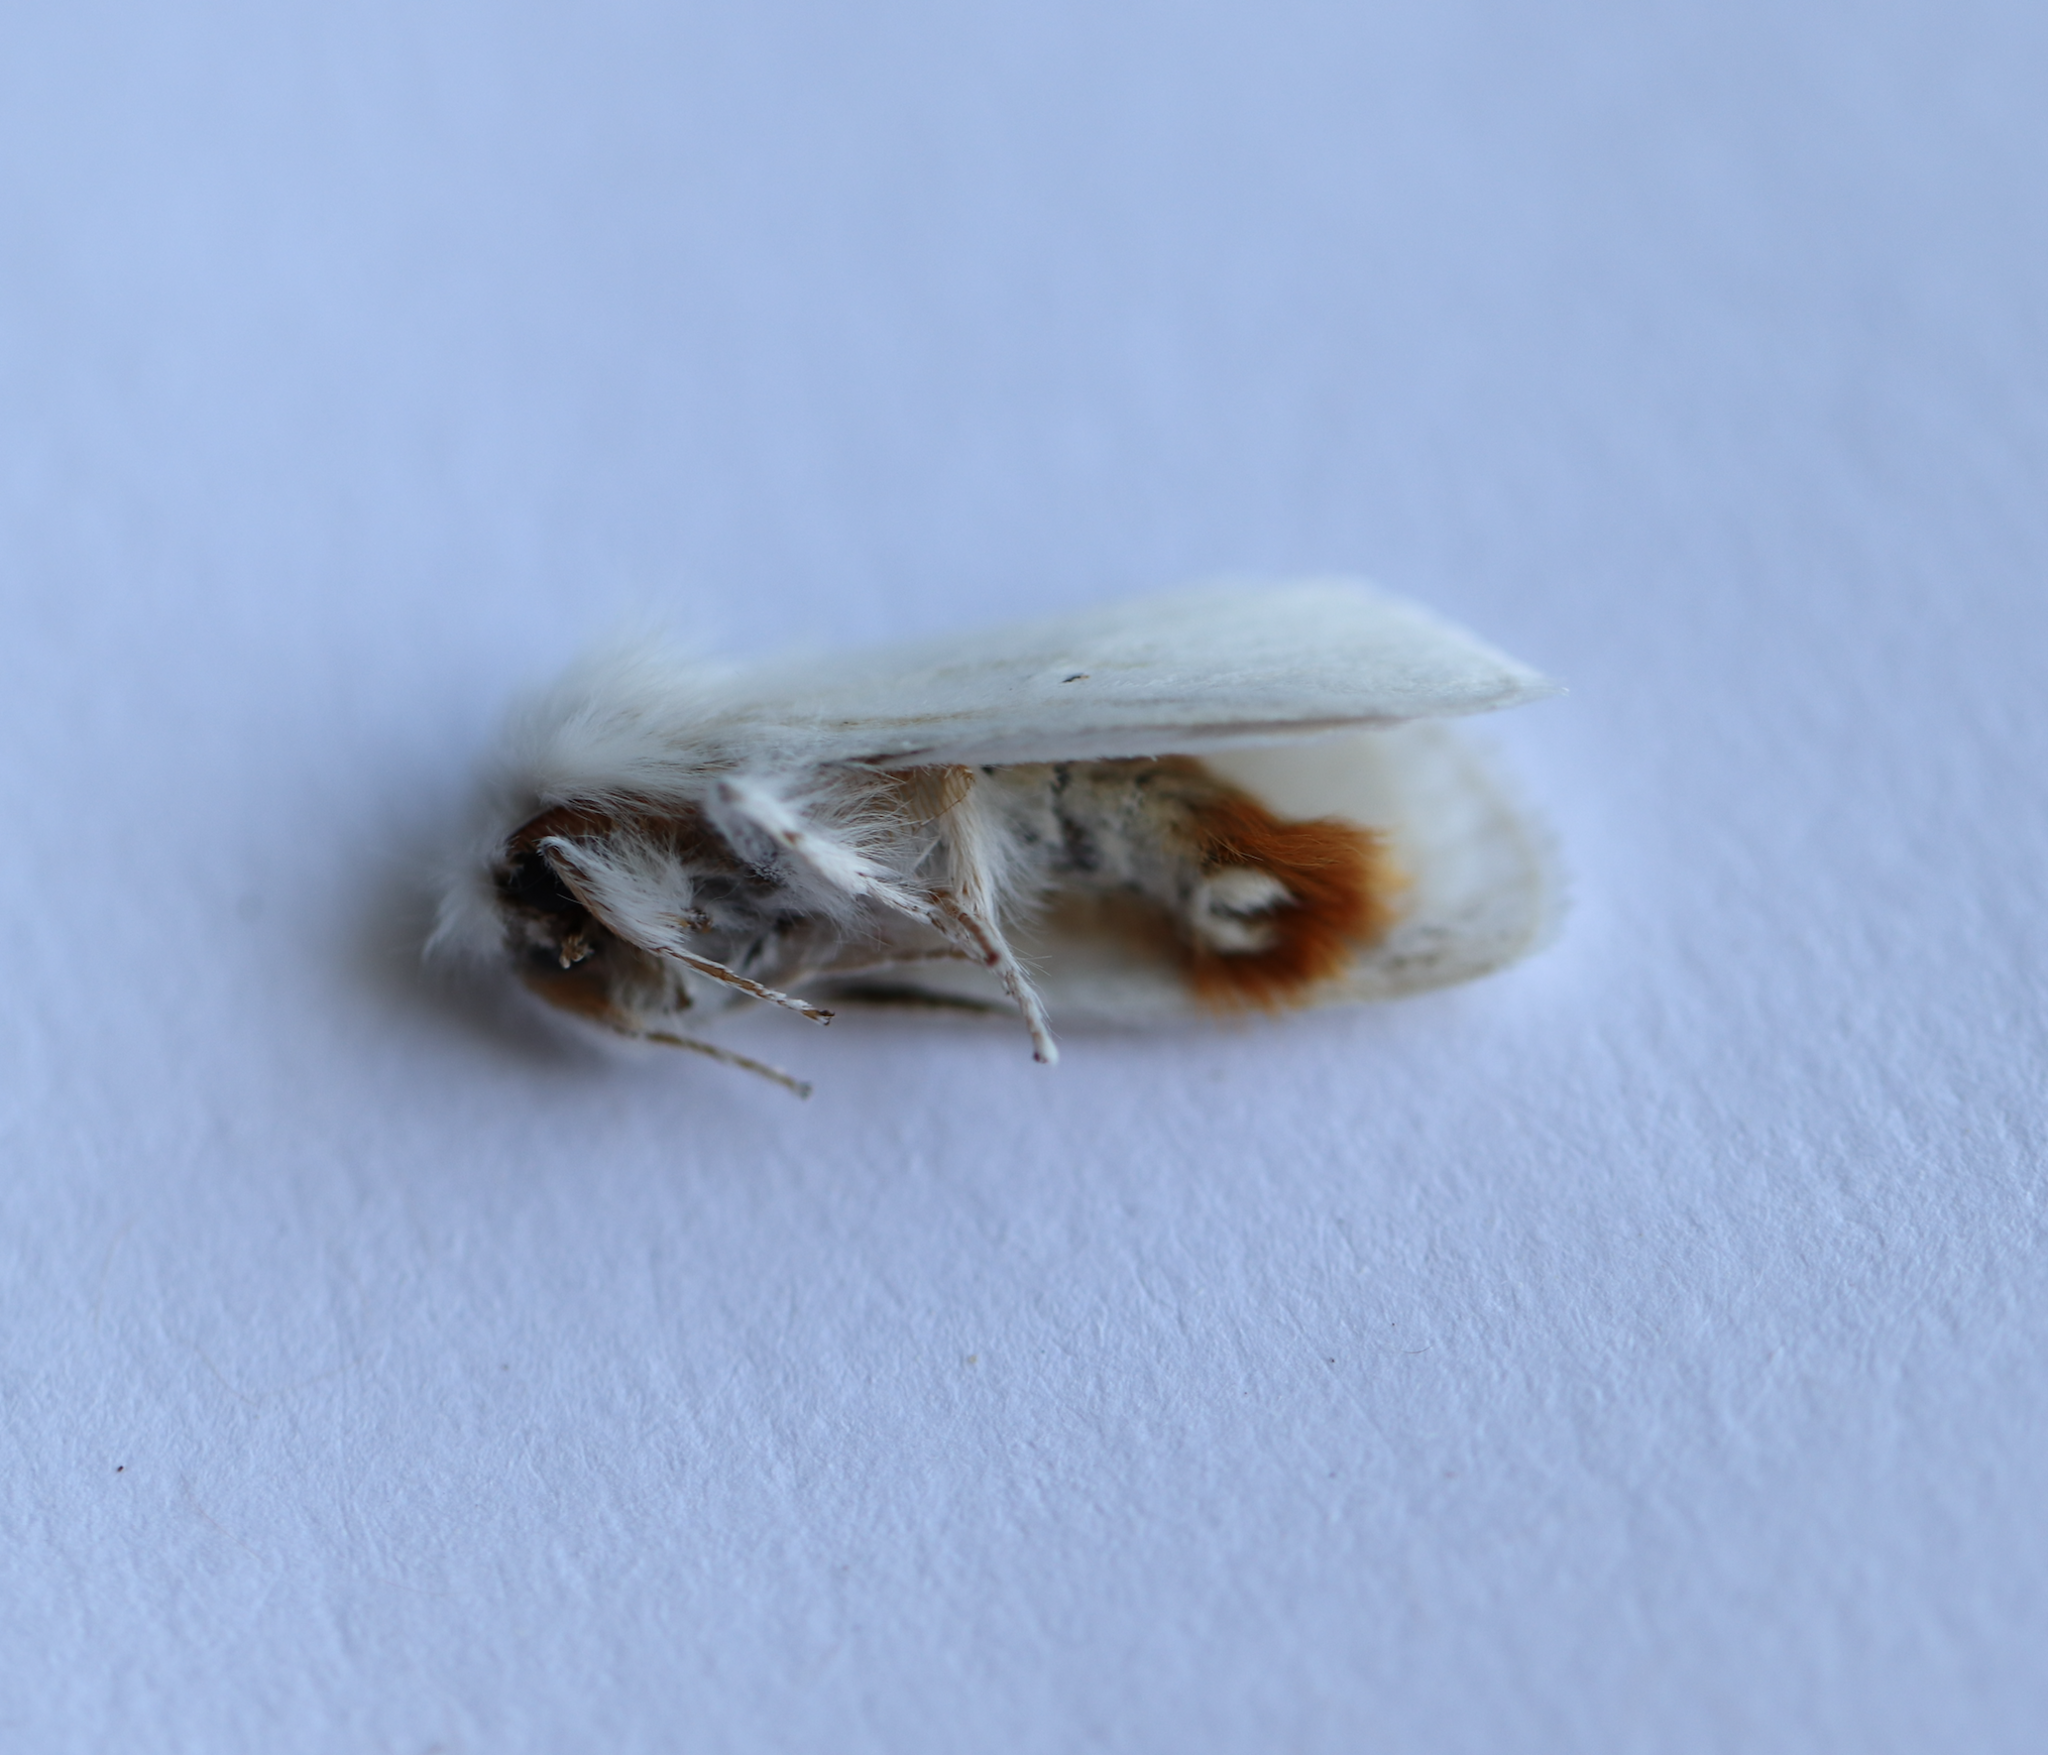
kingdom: Animalia
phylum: Arthropoda
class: Insecta
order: Lepidoptera
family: Erebidae
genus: Euproctis
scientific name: Euproctis chrysorrhoea
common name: Brown-tail
